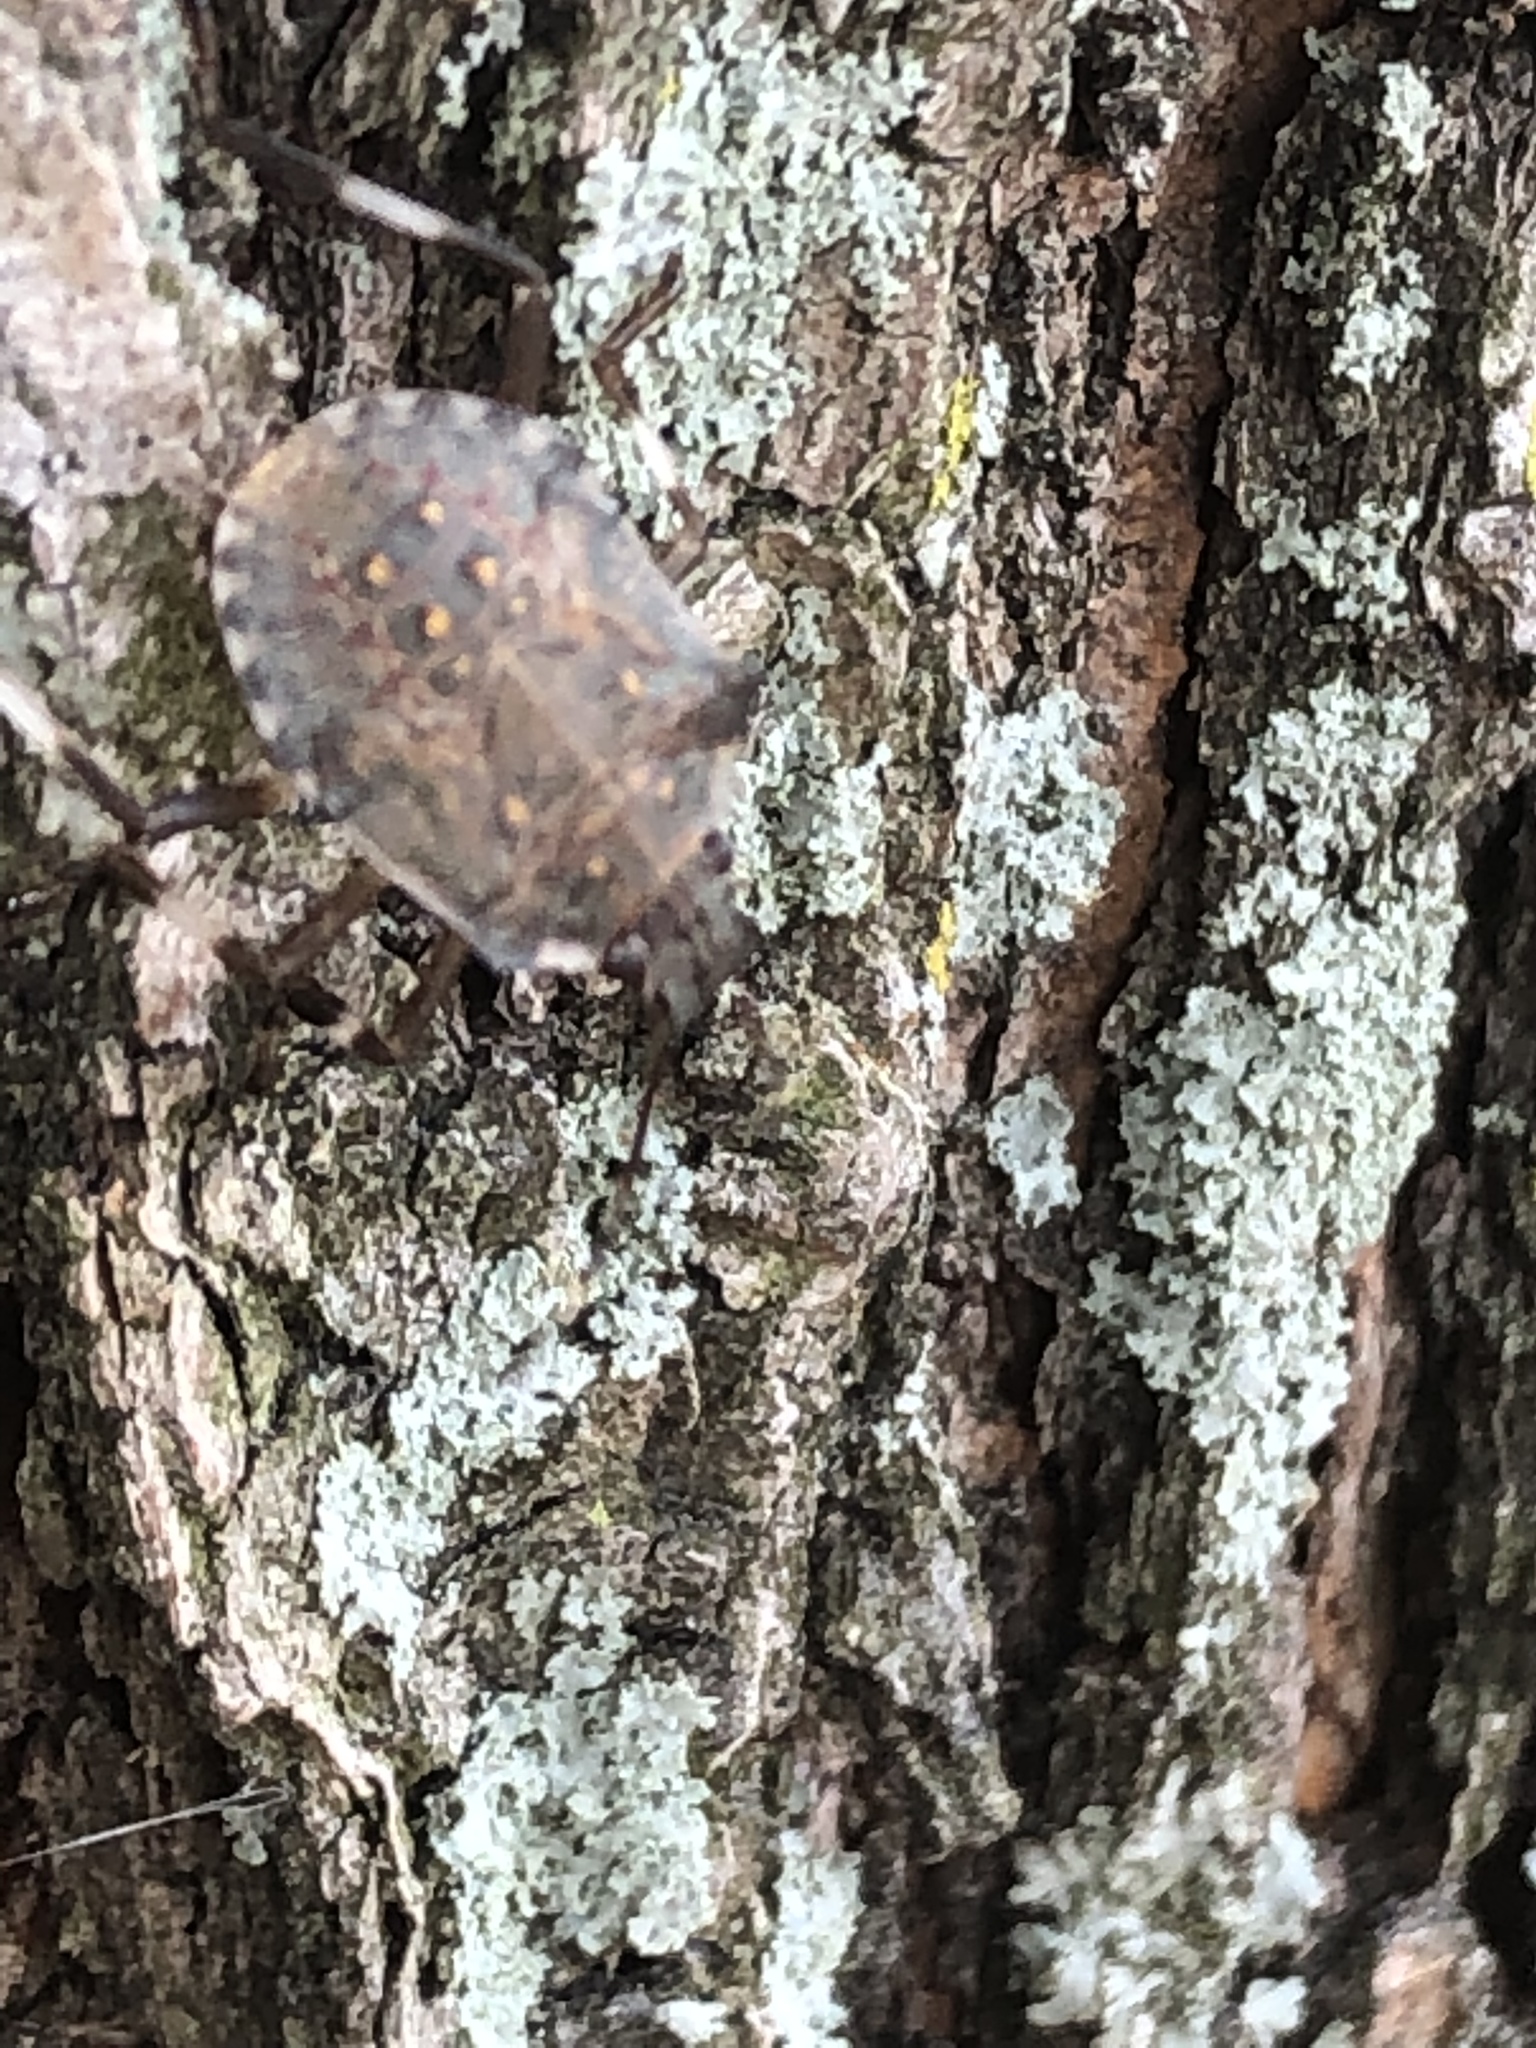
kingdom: Animalia
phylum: Arthropoda
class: Insecta
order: Hemiptera
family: Pentatomidae
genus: Halyomorpha
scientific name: Halyomorpha halys
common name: Brown marmorated stink bug
